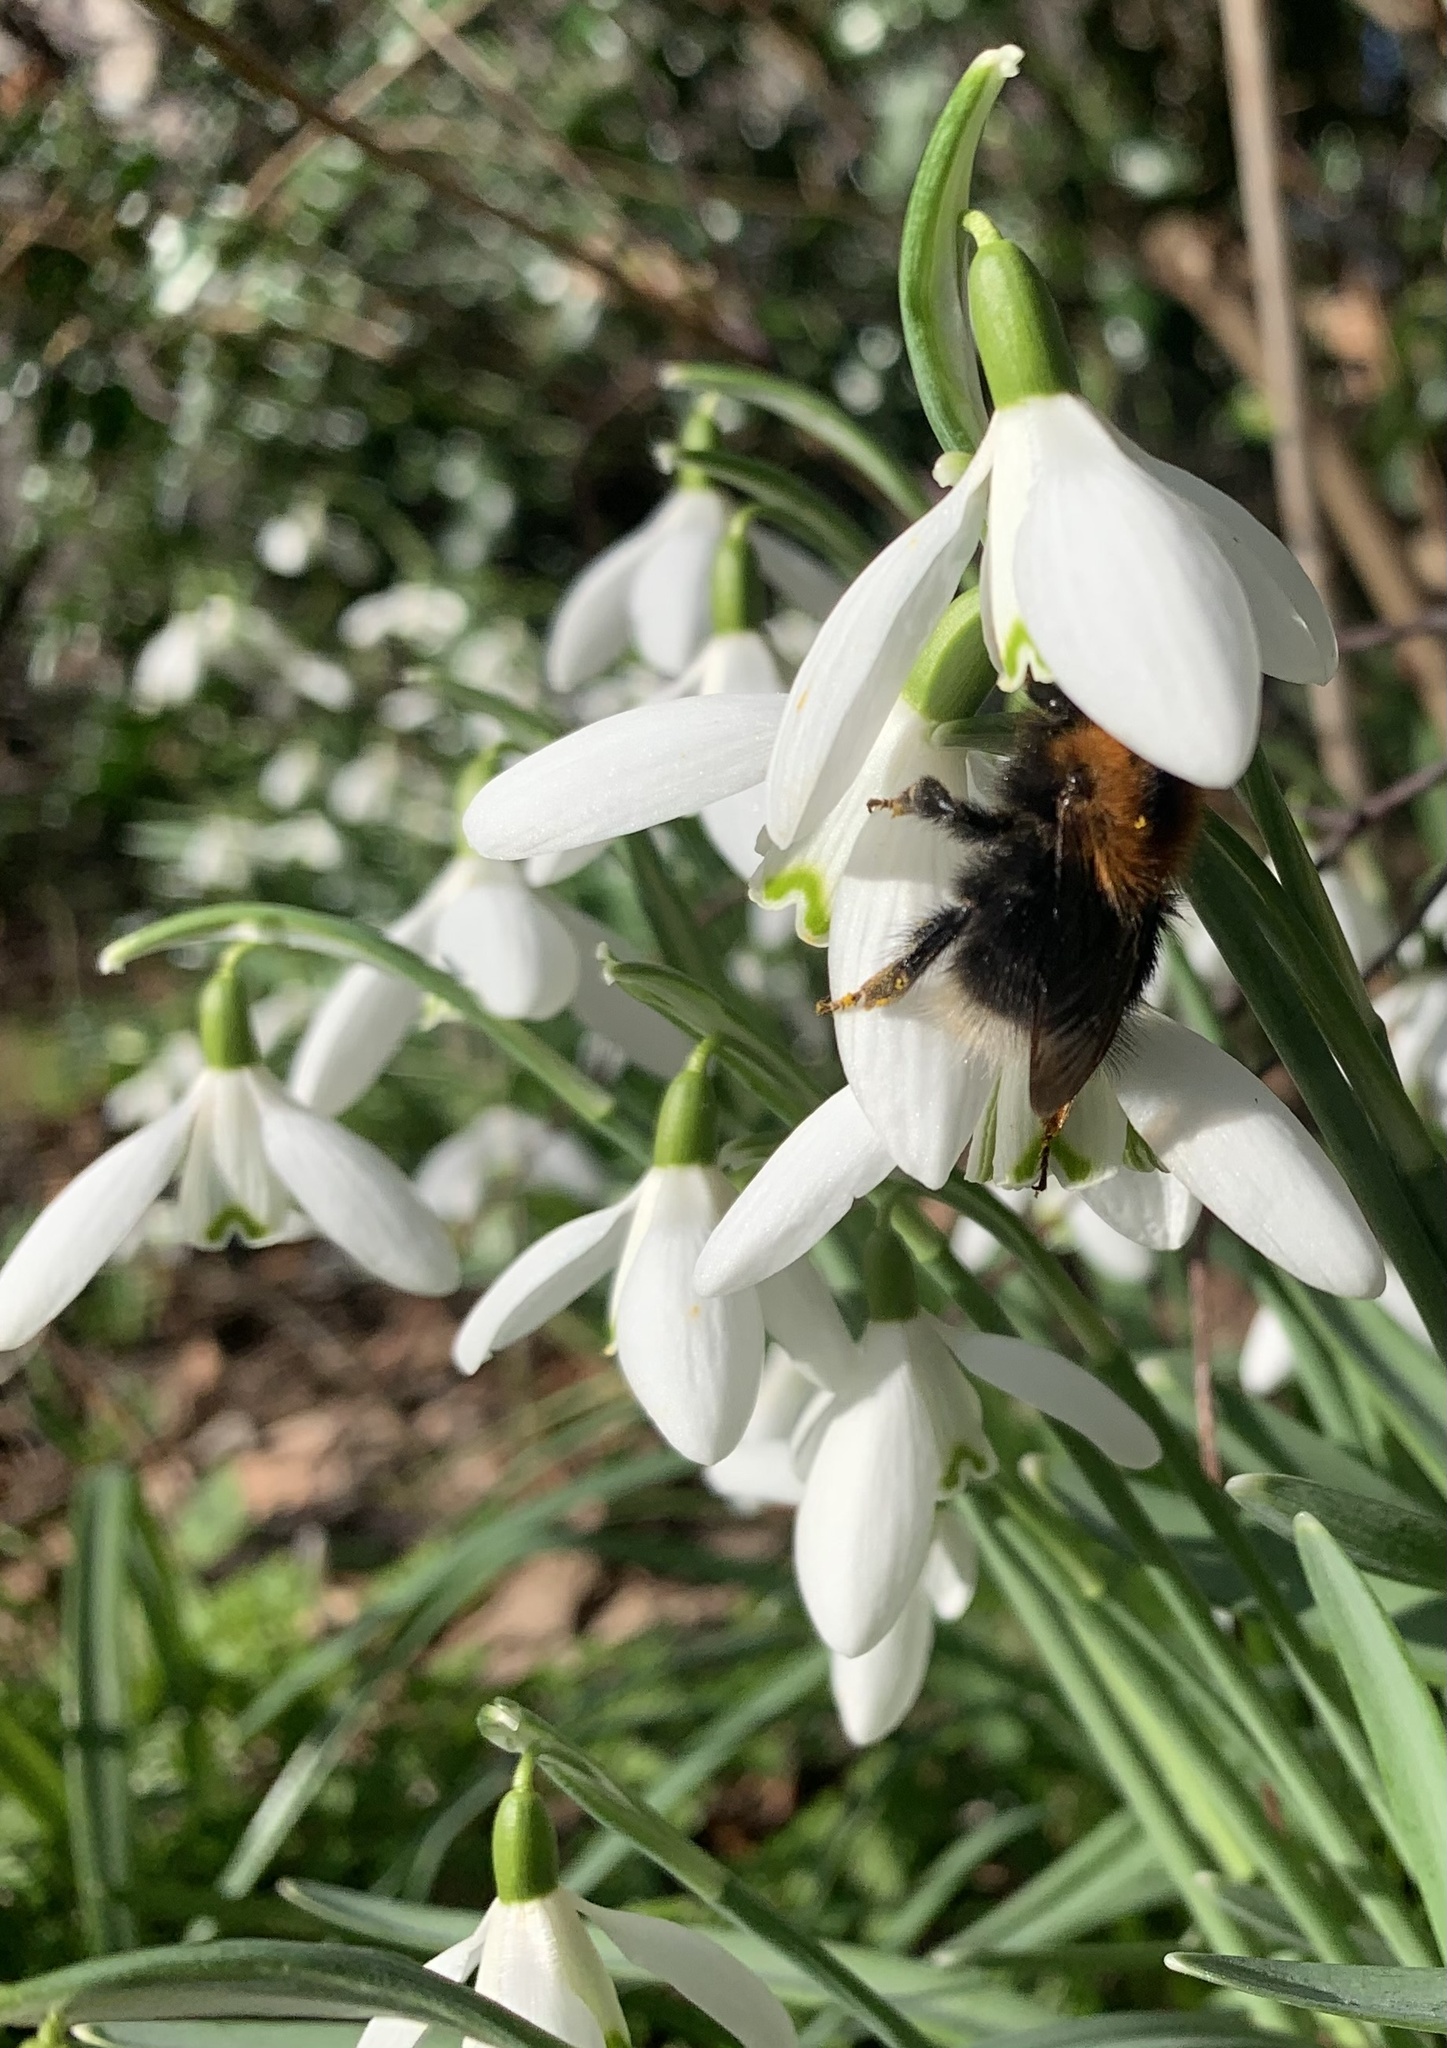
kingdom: Animalia
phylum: Arthropoda
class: Insecta
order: Hymenoptera
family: Apidae
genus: Bombus
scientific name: Bombus hypnorum
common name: New garden bumblebee
